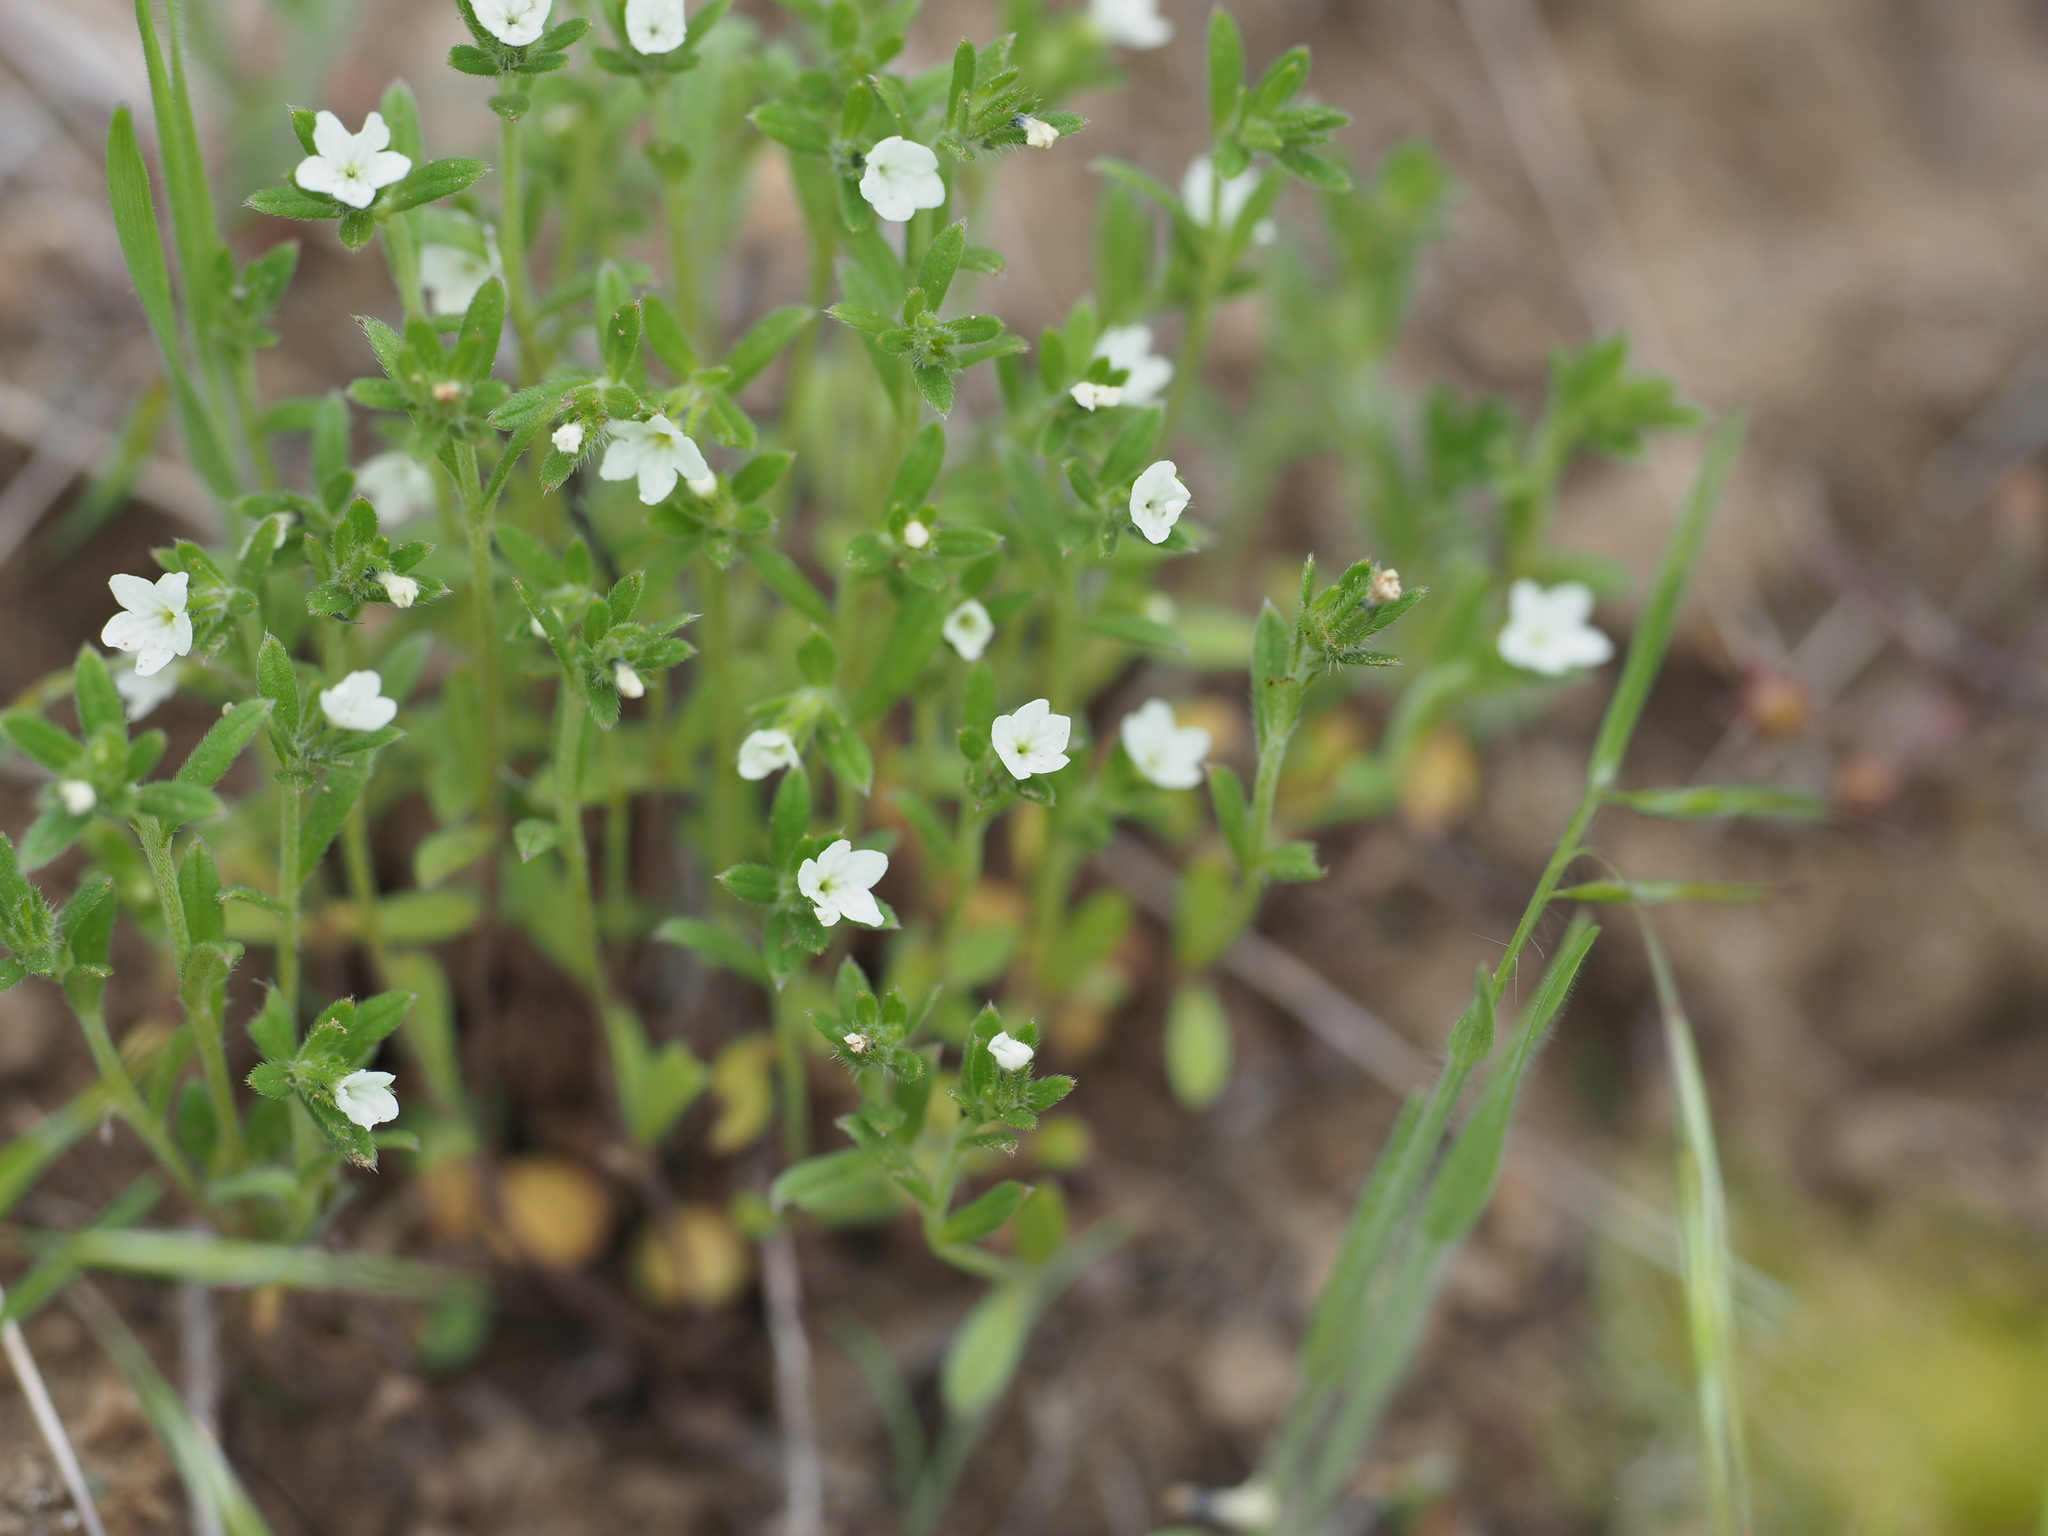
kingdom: Plantae
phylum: Tracheophyta
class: Magnoliopsida
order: Boraginales
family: Boraginaceae
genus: Buglossoides
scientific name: Buglossoides arvensis
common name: Corn gromwell
